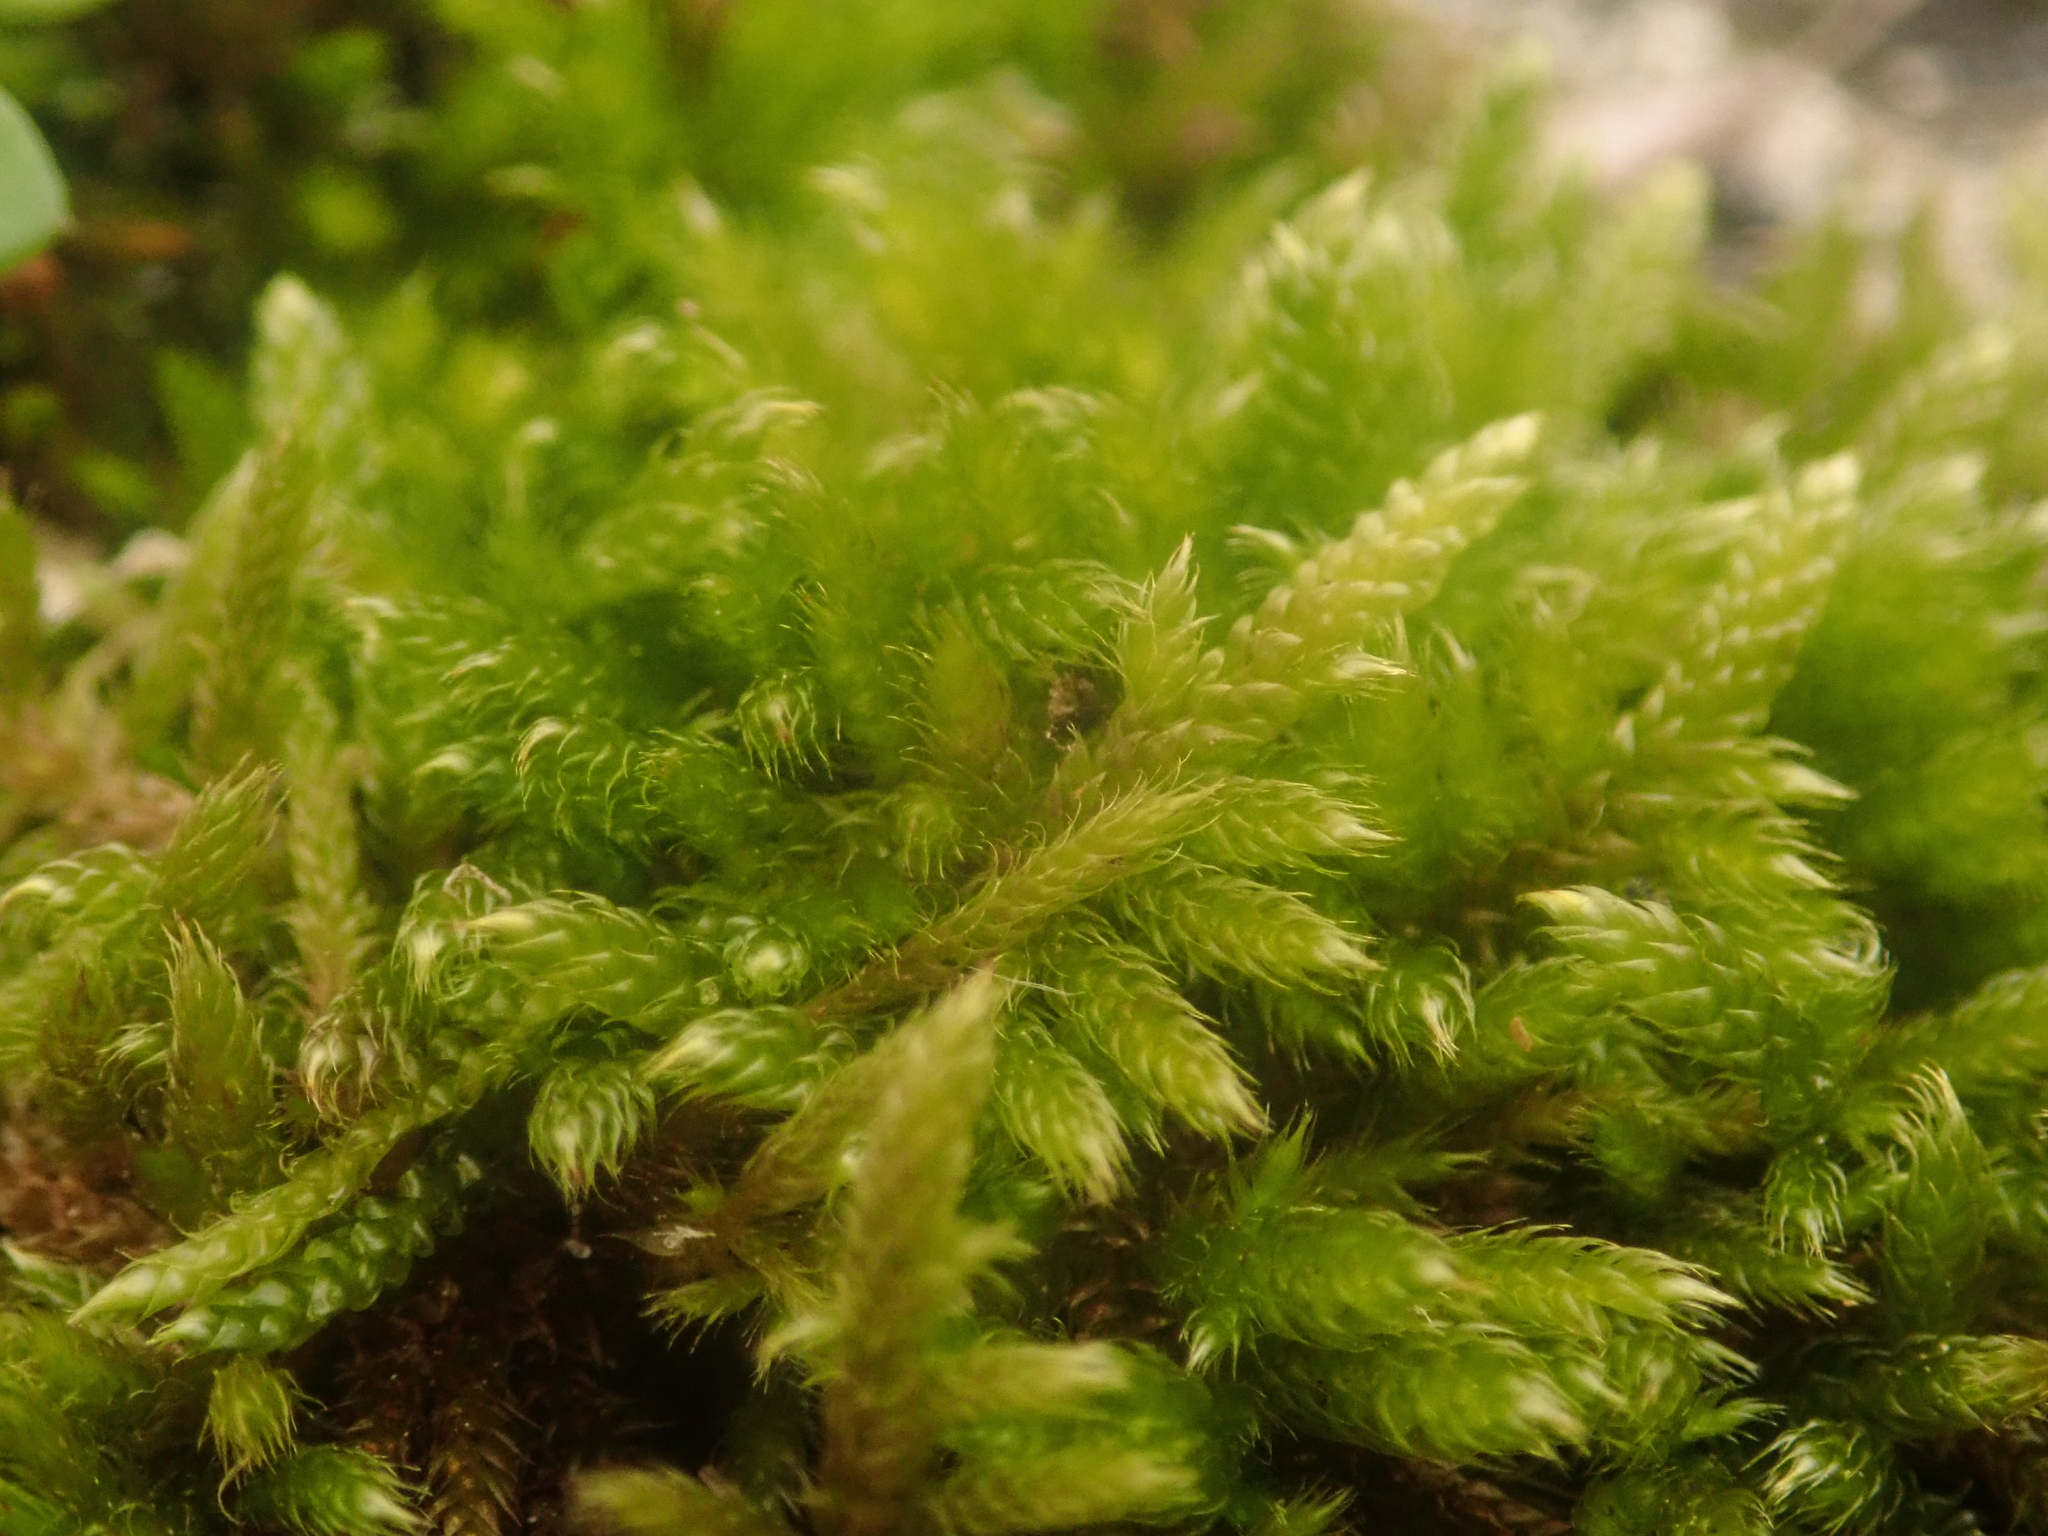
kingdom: Plantae
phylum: Bryophyta
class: Bryopsida
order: Hypnales
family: Hypnaceae
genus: Hypnum
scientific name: Hypnum cupressiforme
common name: Cypress-leaved plait-moss
